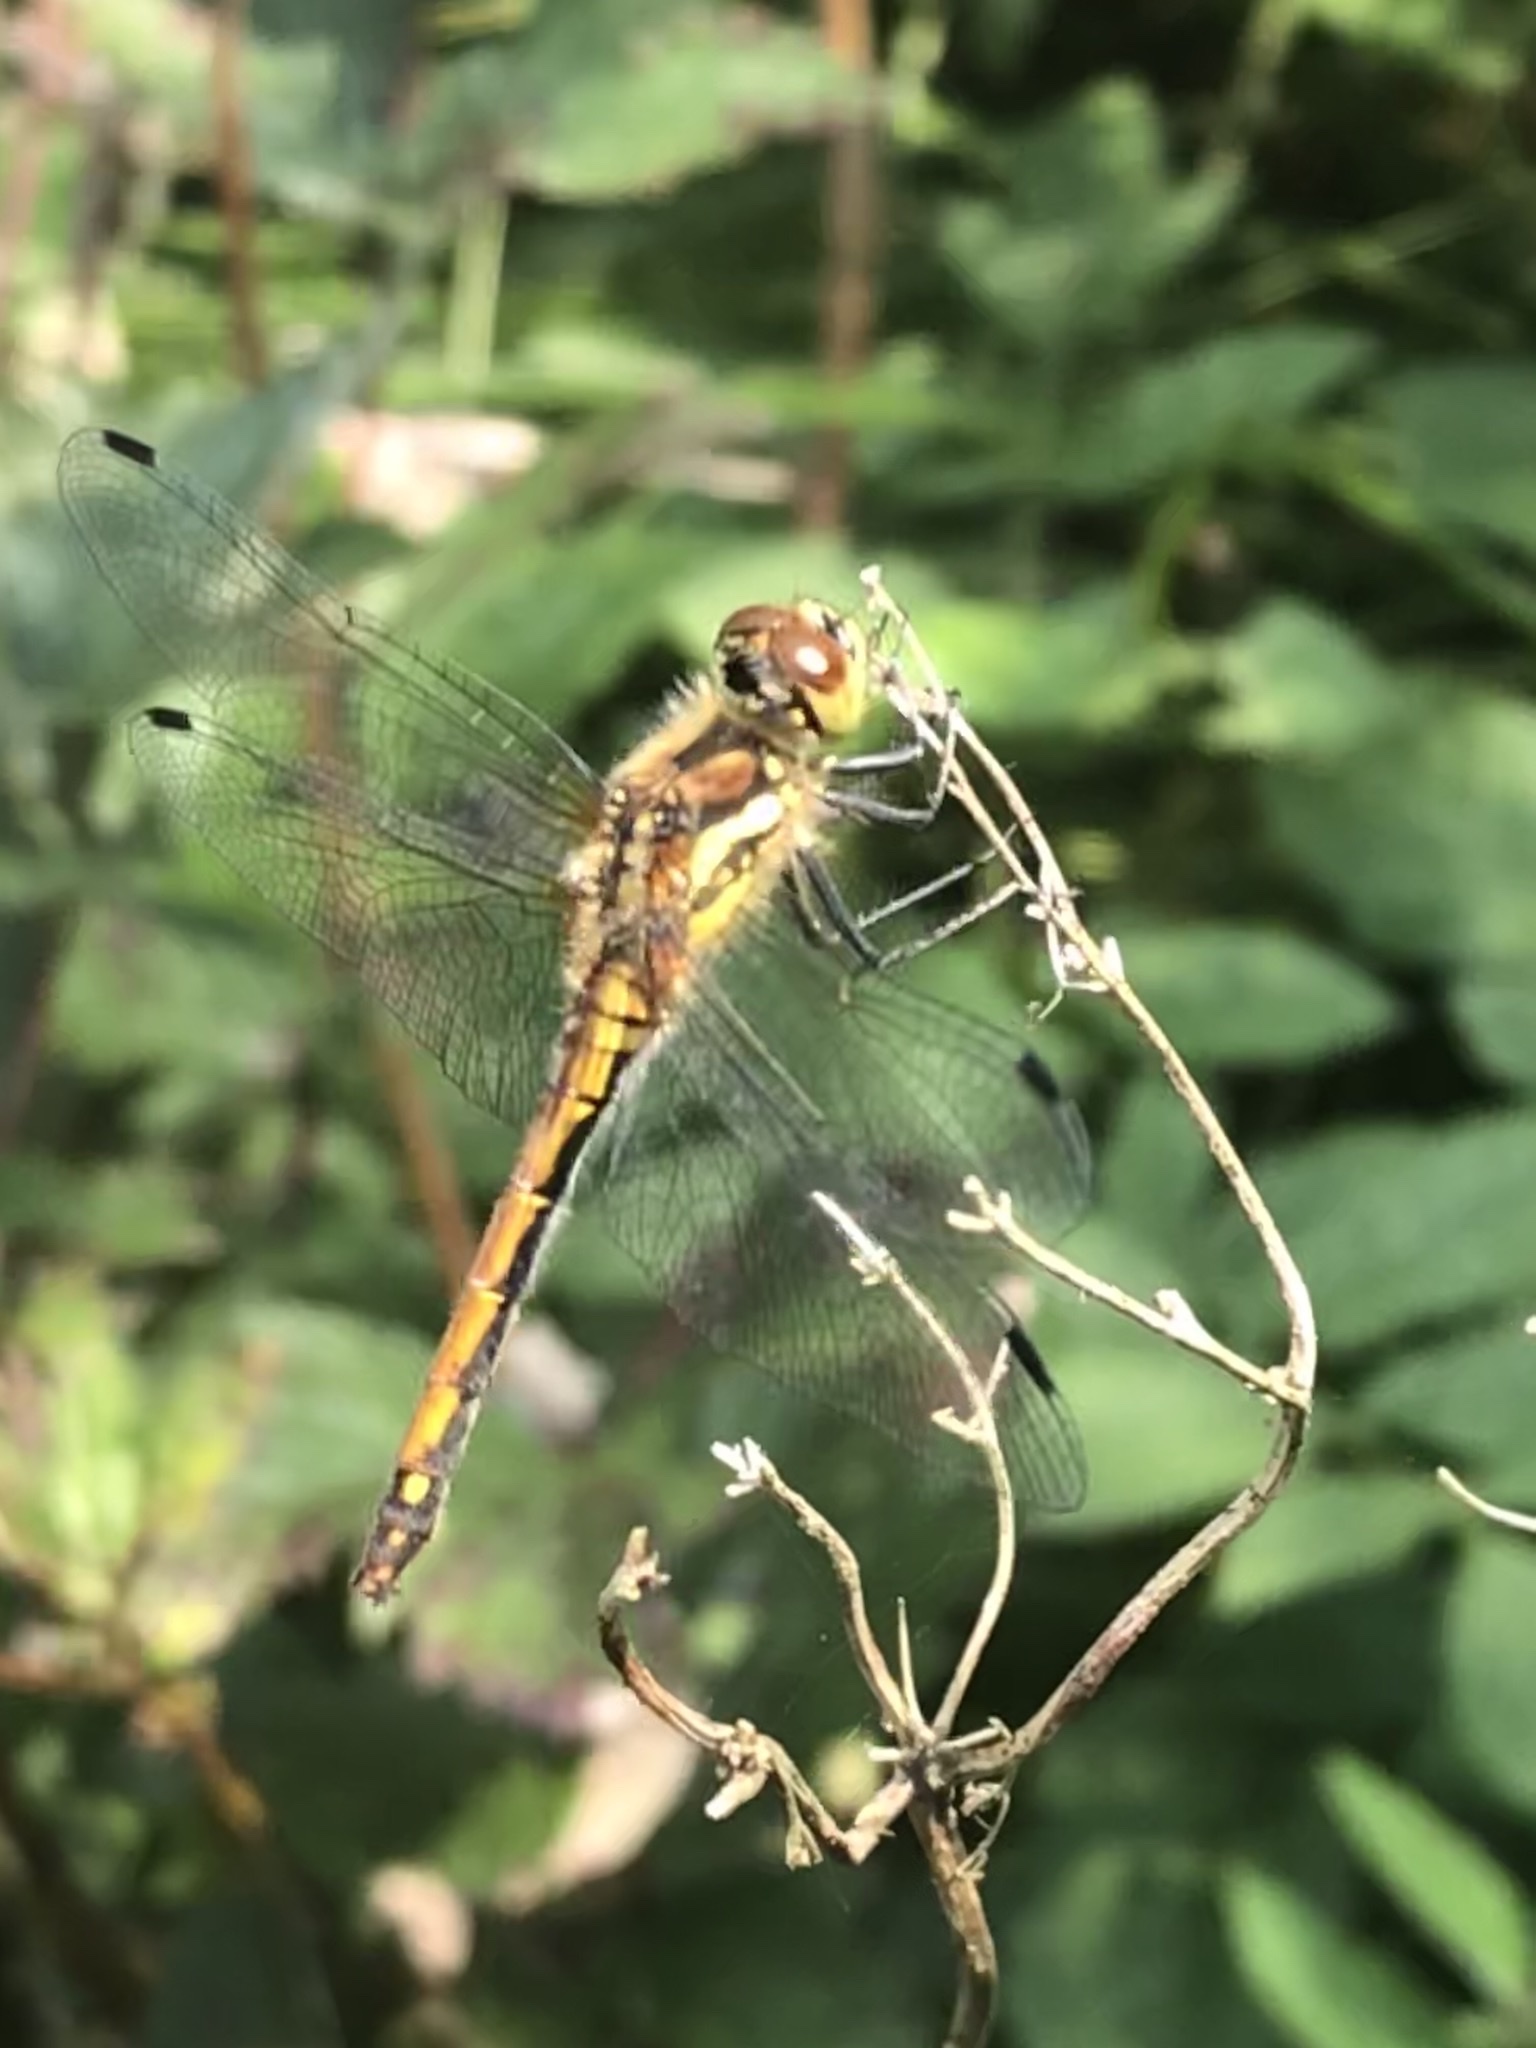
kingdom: Animalia
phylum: Arthropoda
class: Insecta
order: Odonata
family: Libellulidae
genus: Sympetrum
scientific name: Sympetrum danae
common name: Black darter
